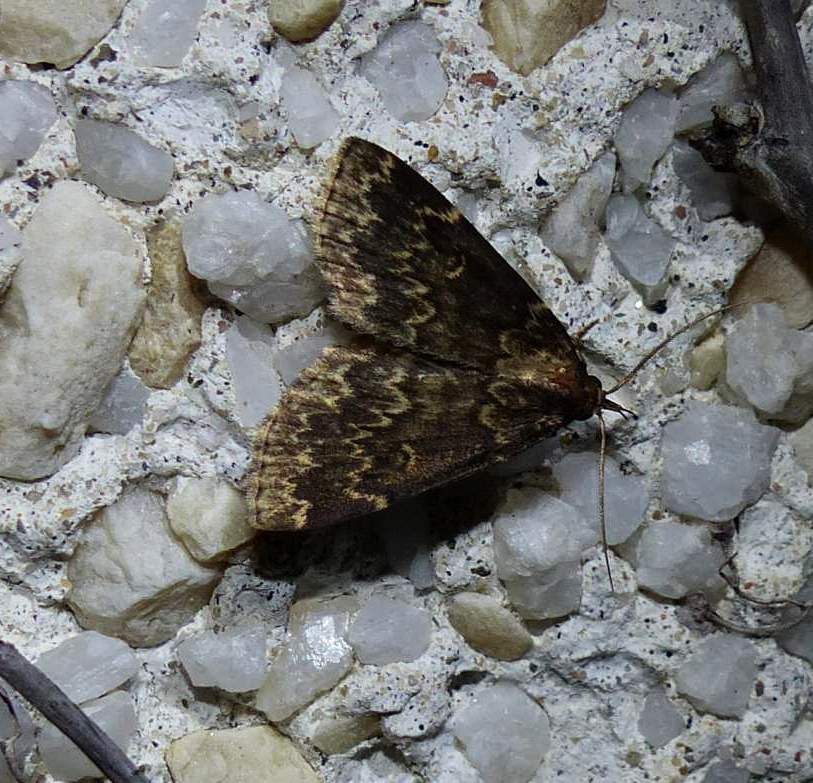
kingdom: Animalia
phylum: Arthropoda
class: Insecta
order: Lepidoptera
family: Erebidae
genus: Idia
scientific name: Idia lubricalis
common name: Twin-striped tabby
